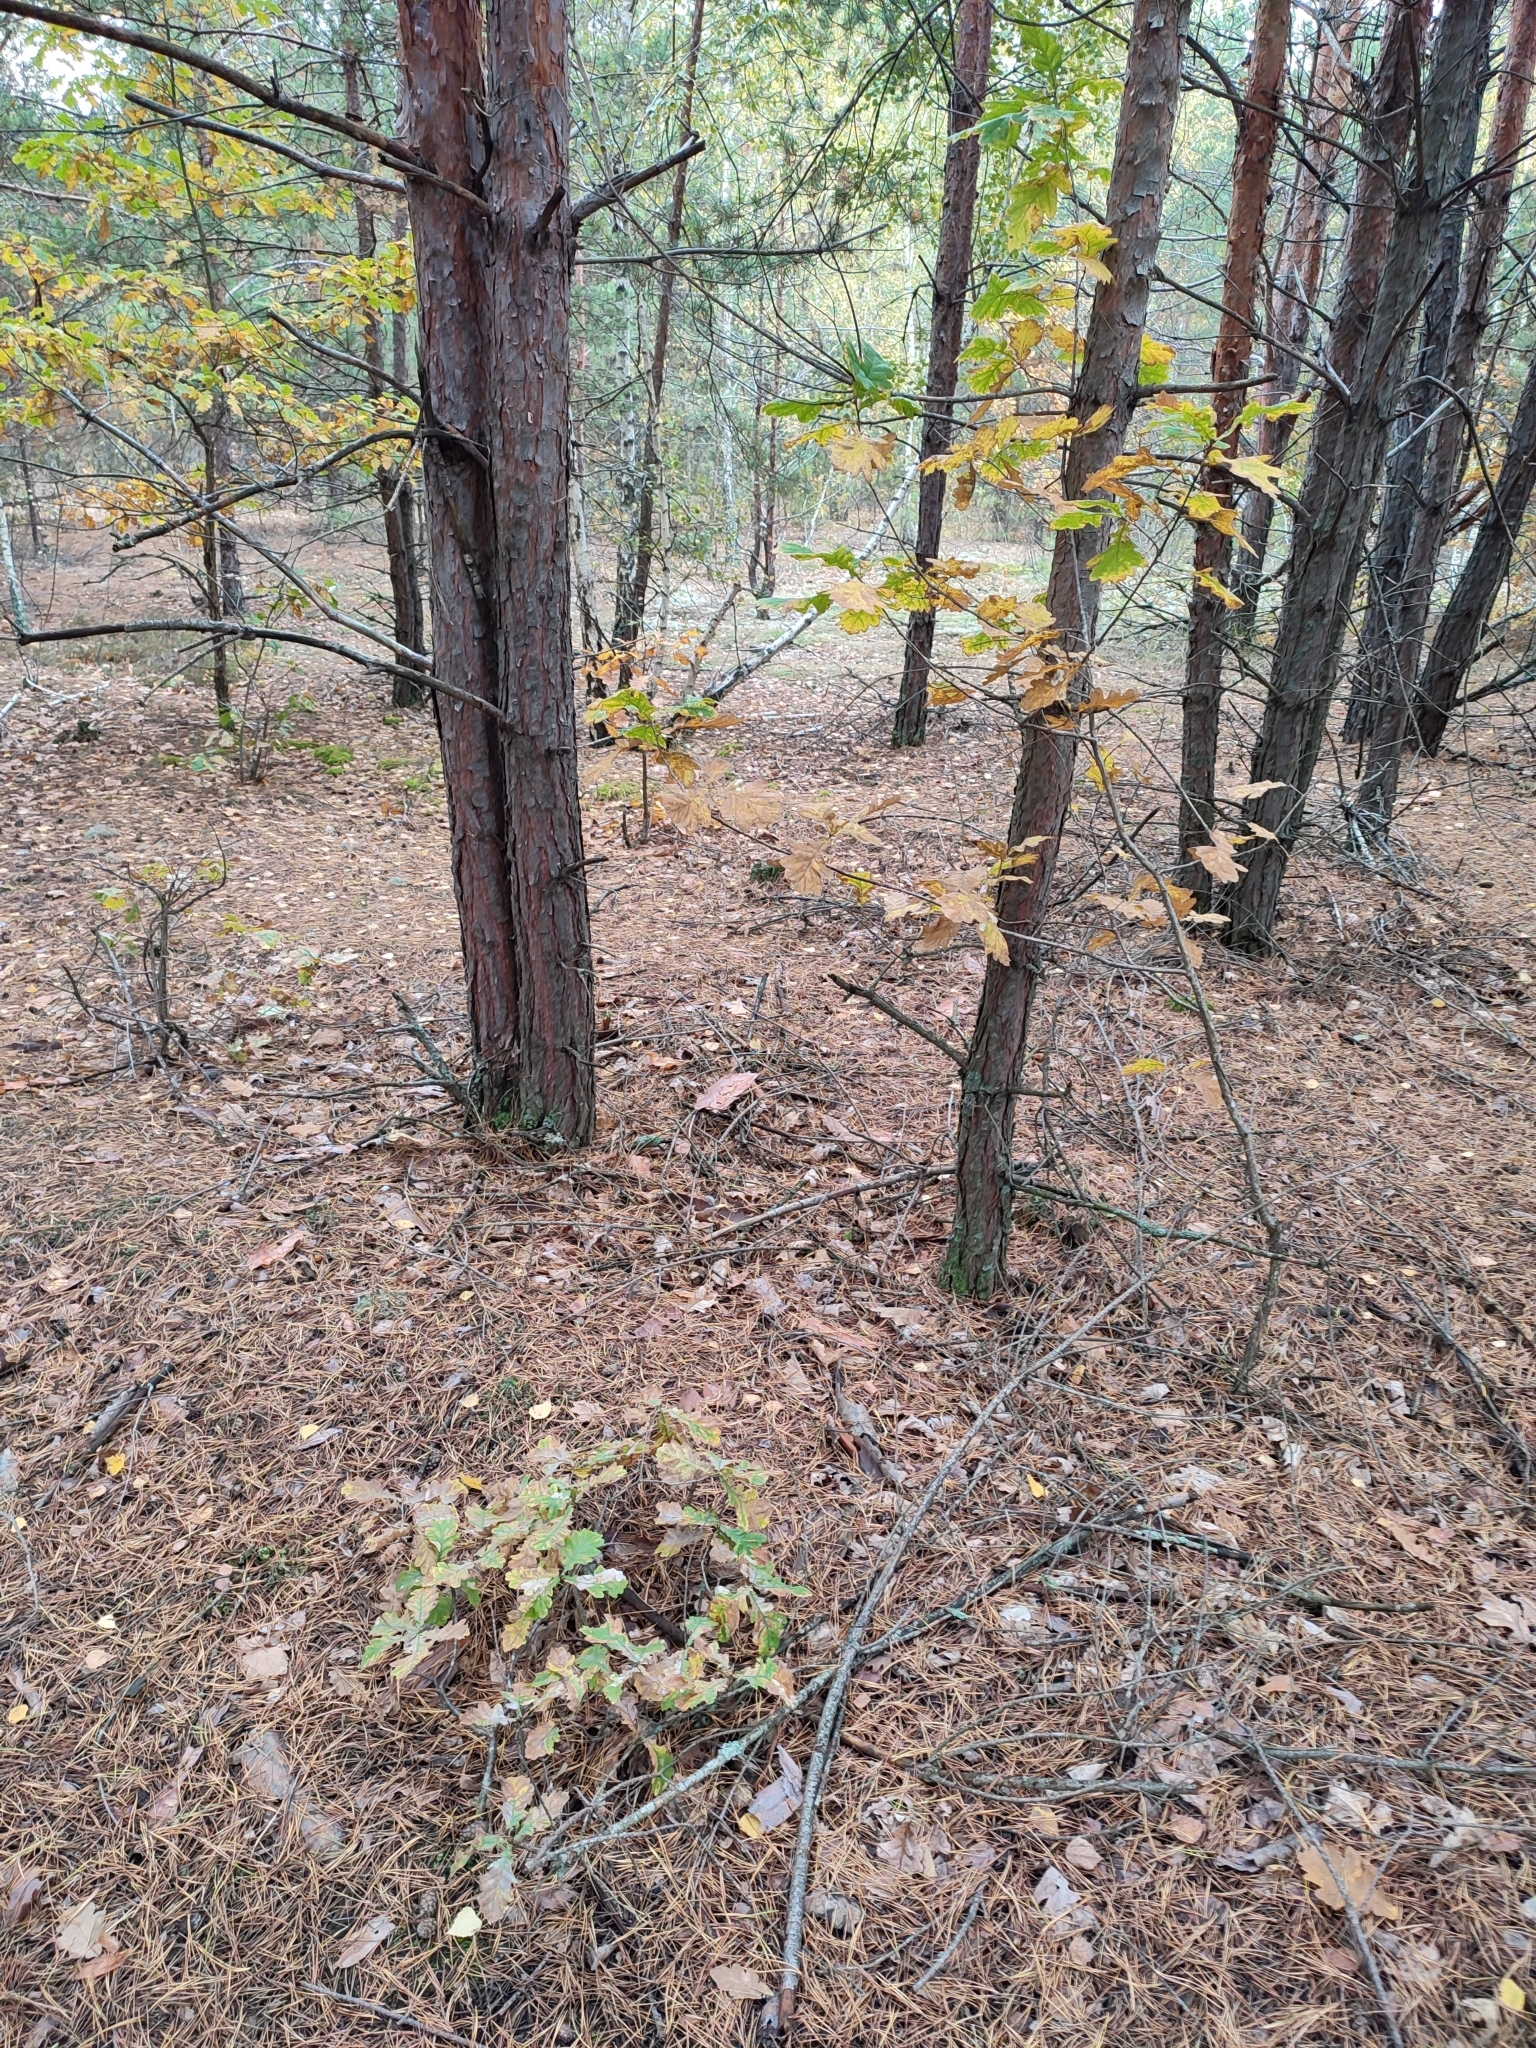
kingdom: Plantae
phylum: Tracheophyta
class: Magnoliopsida
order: Fagales
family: Fagaceae
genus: Quercus
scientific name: Quercus robur
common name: Pedunculate oak
